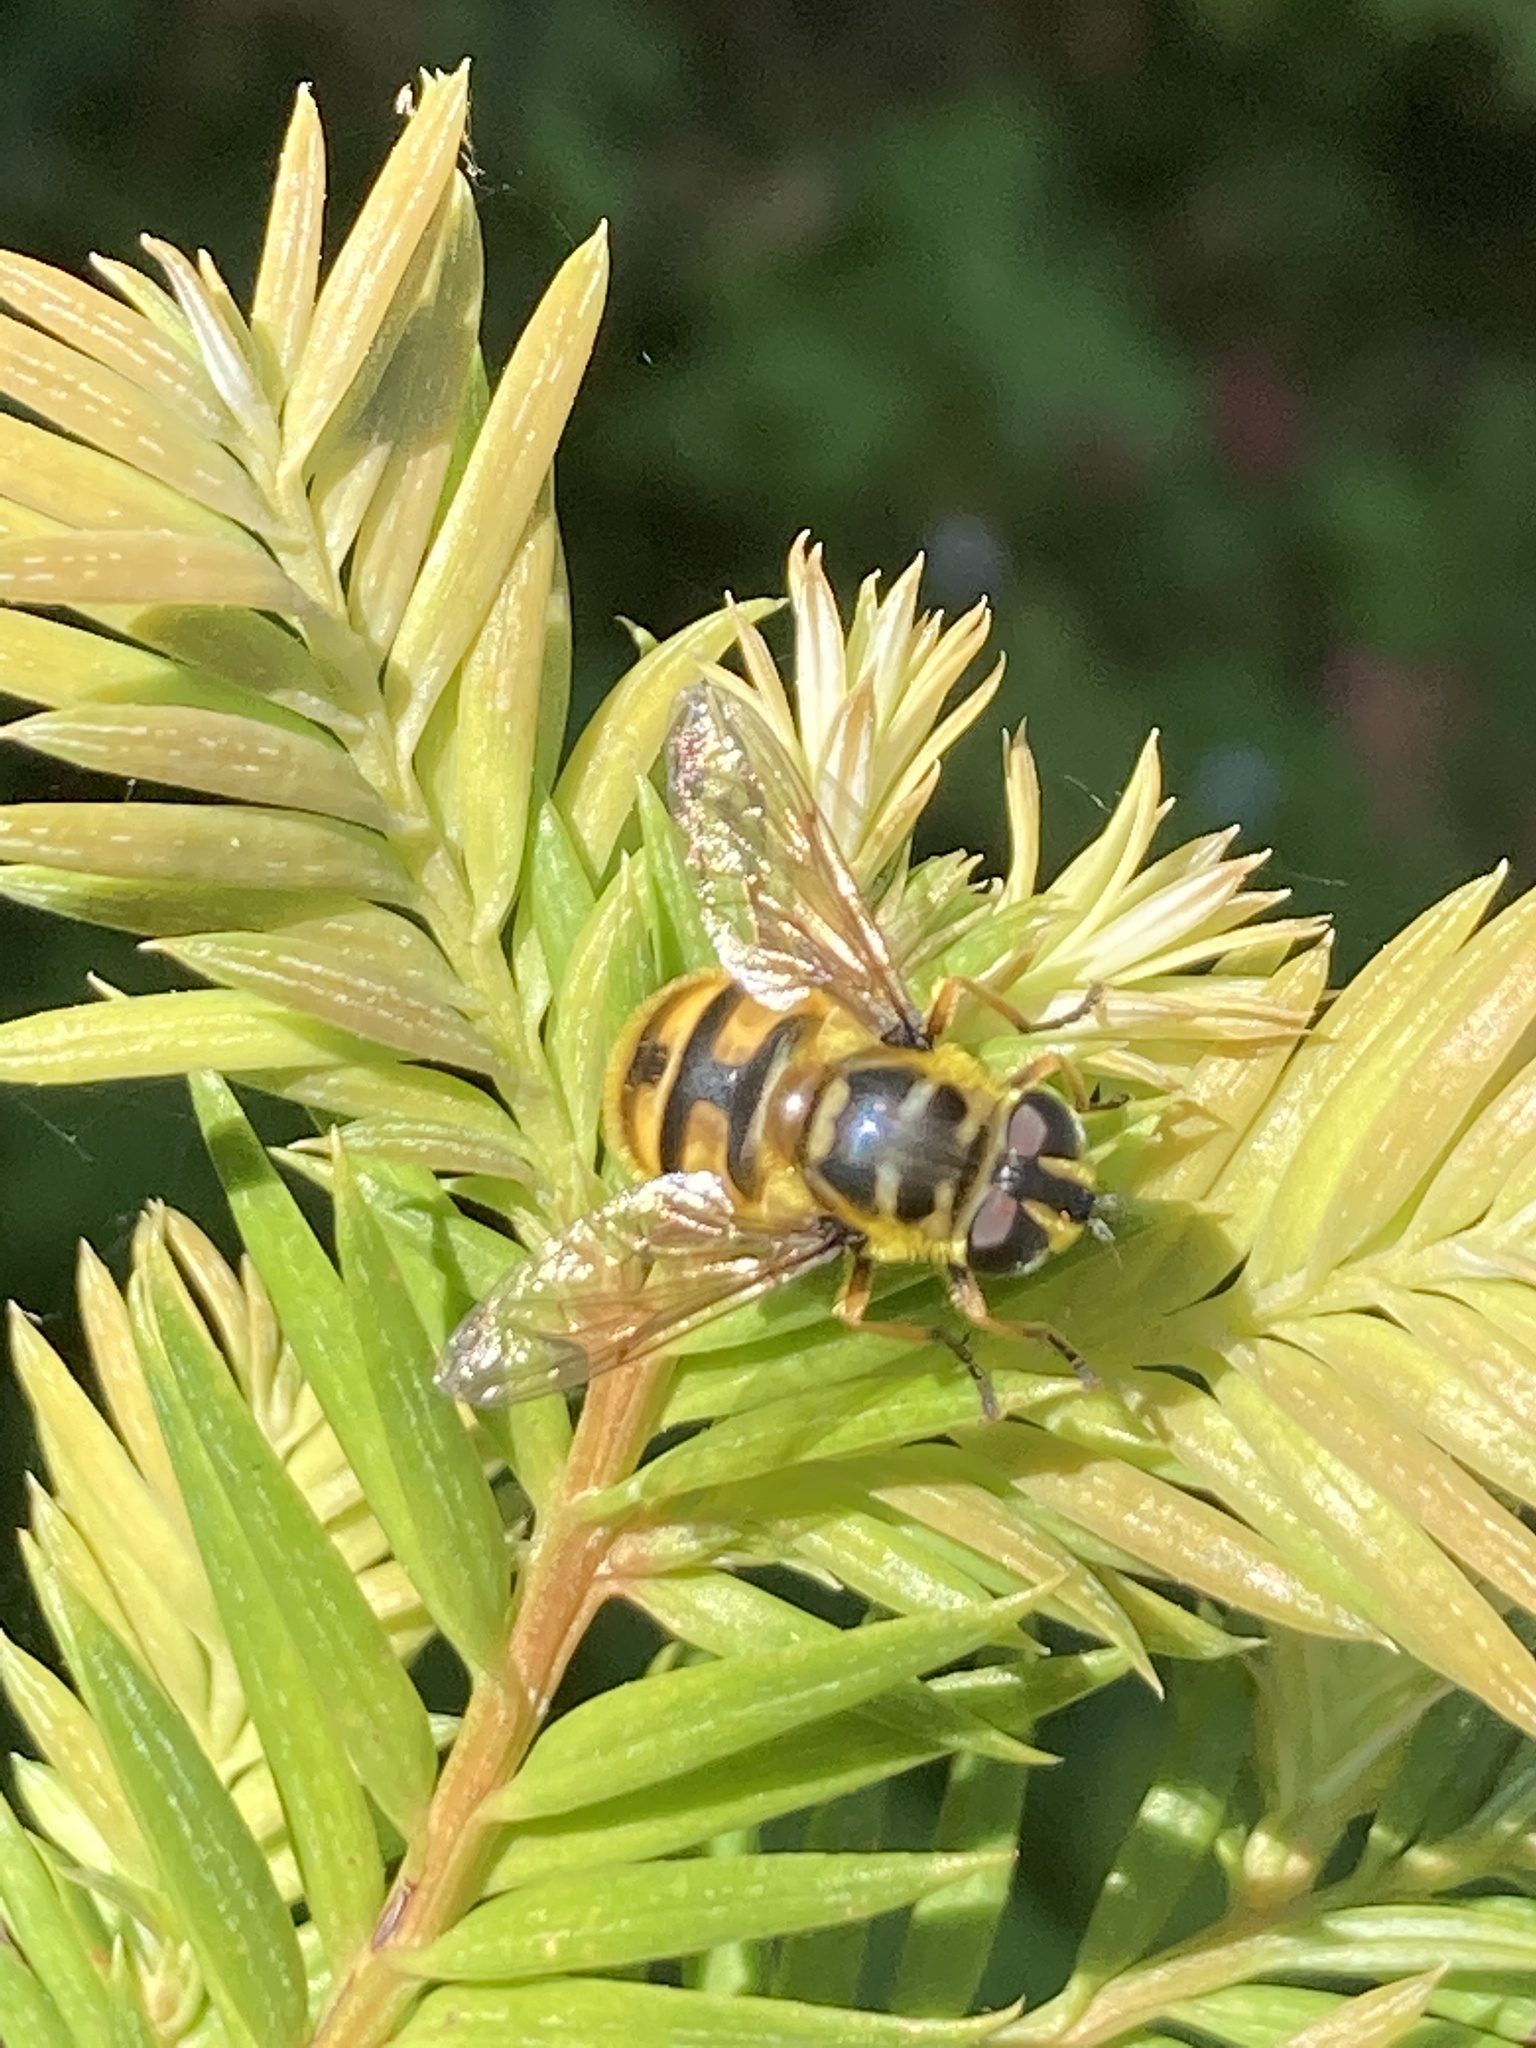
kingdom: Animalia
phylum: Arthropoda
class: Insecta
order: Diptera
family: Syrphidae
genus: Myathropa
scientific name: Myathropa florea
